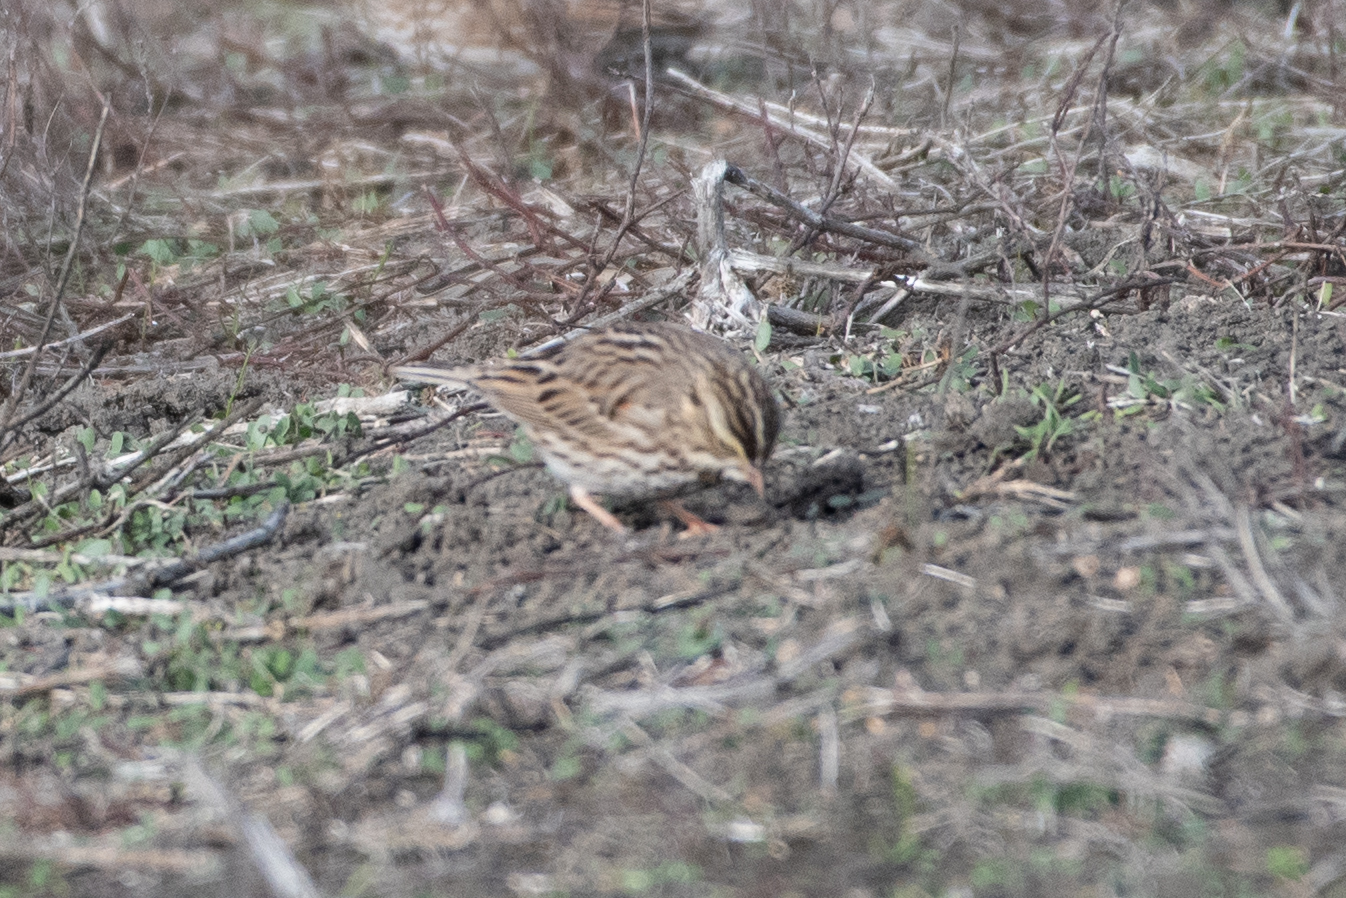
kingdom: Animalia
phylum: Chordata
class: Aves
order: Passeriformes
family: Passerellidae
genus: Passerculus
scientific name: Passerculus sandwichensis
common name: Savannah sparrow
